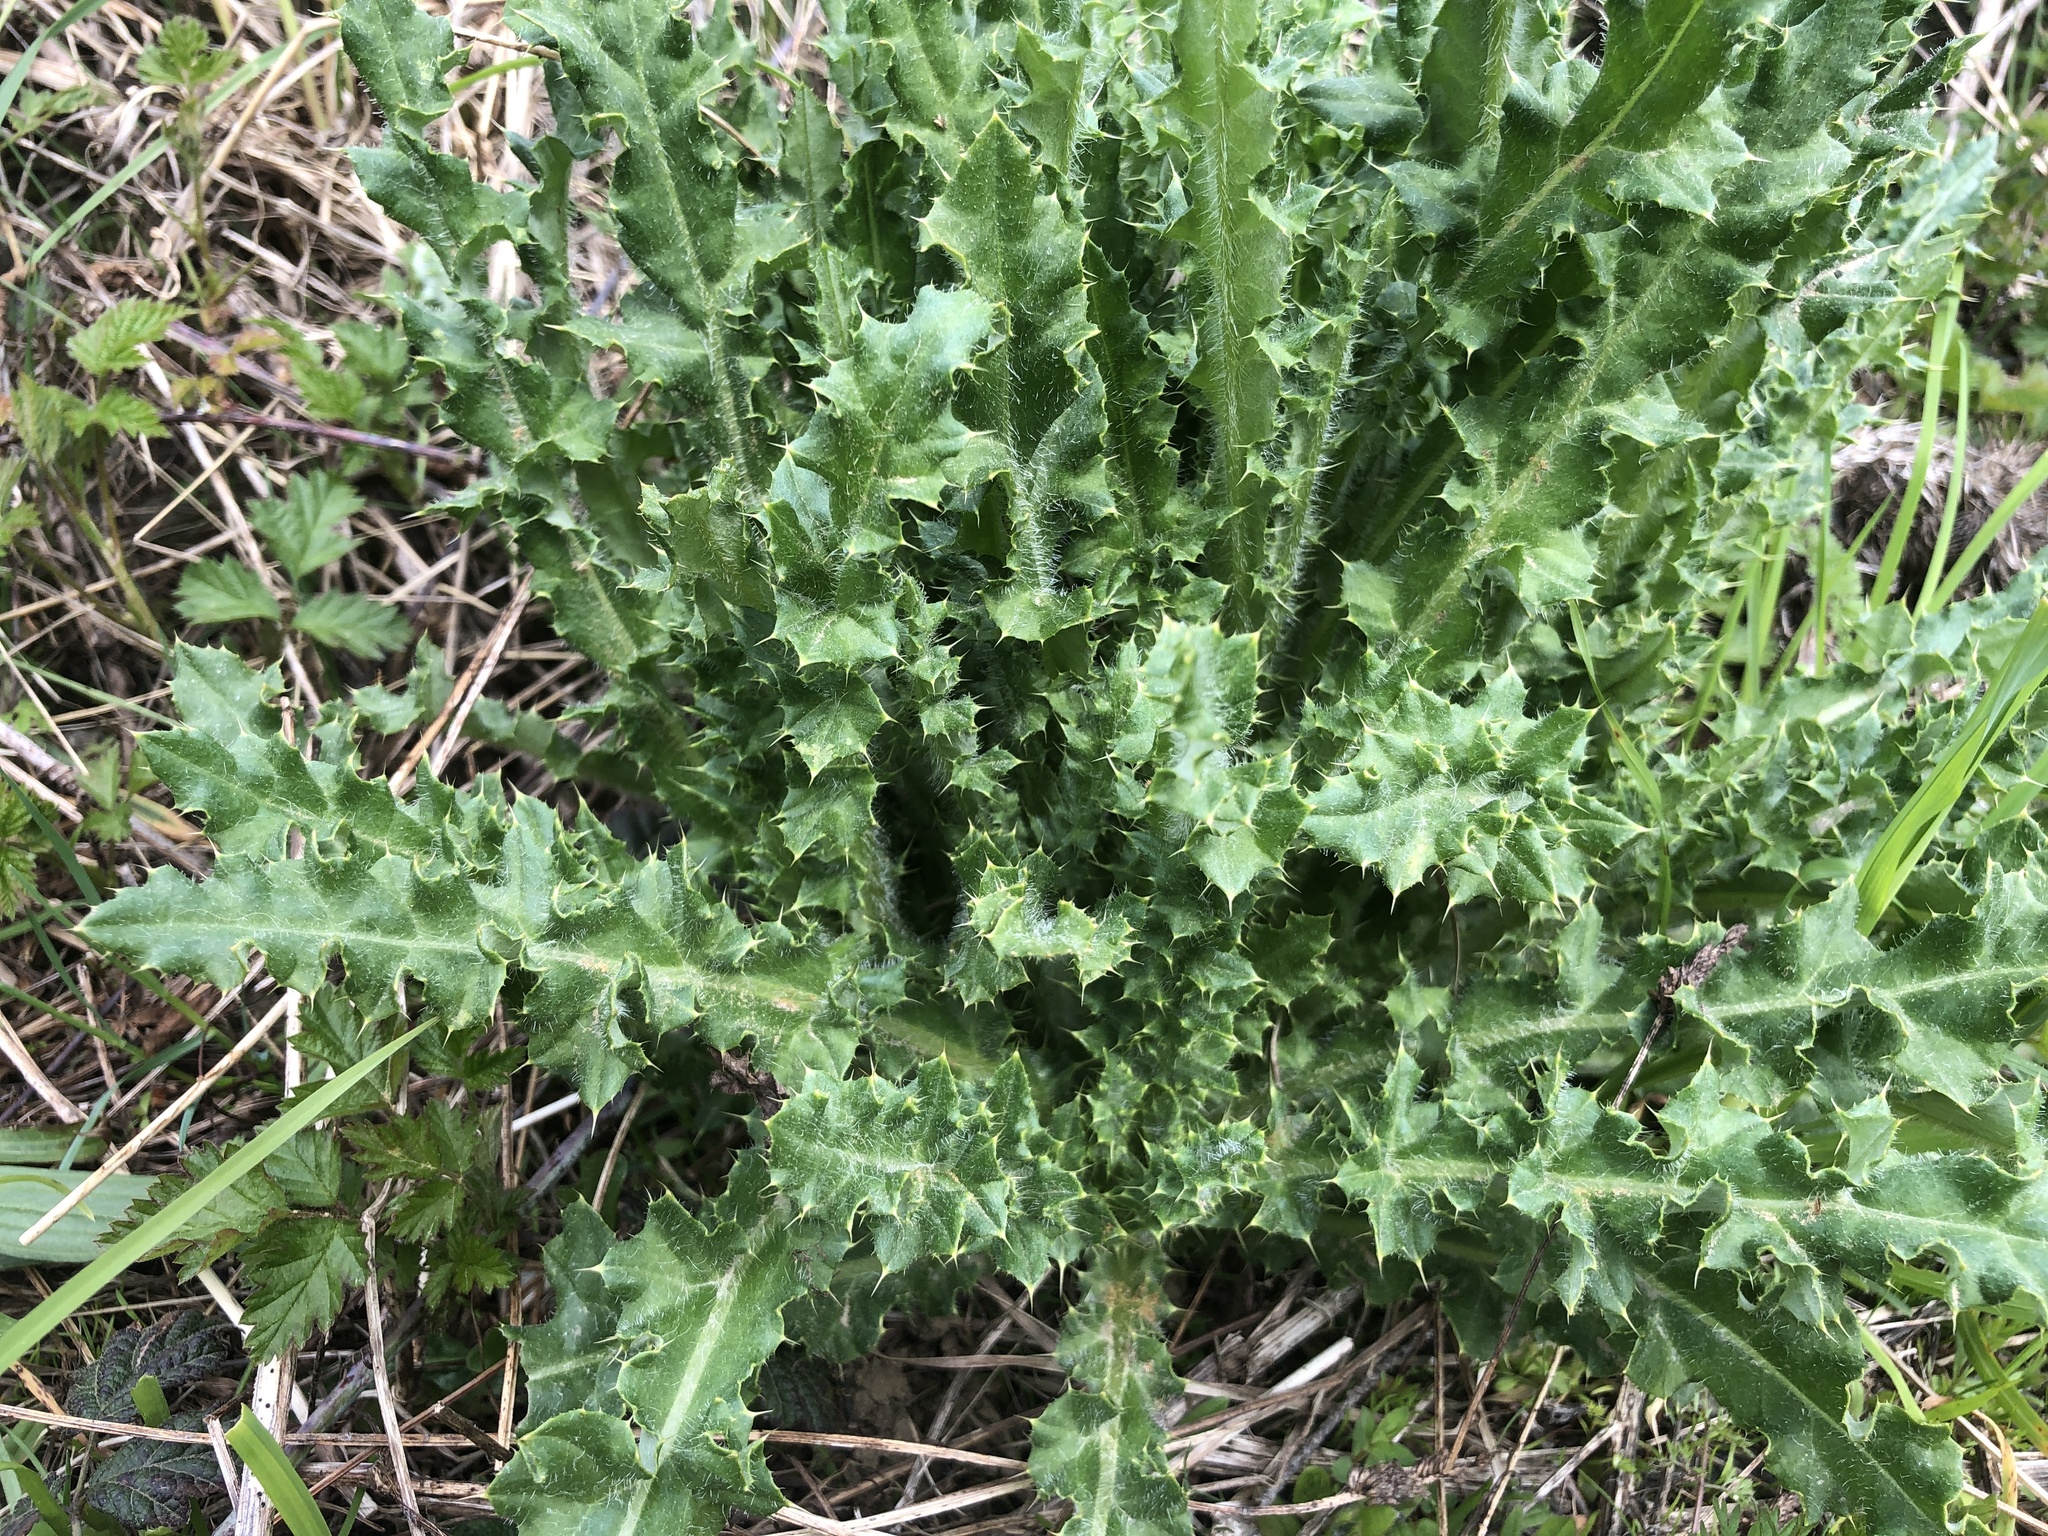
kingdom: Plantae
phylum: Tracheophyta
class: Magnoliopsida
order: Asterales
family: Asteraceae
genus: Cirsium
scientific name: Cirsium arvense
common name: Creeping thistle
